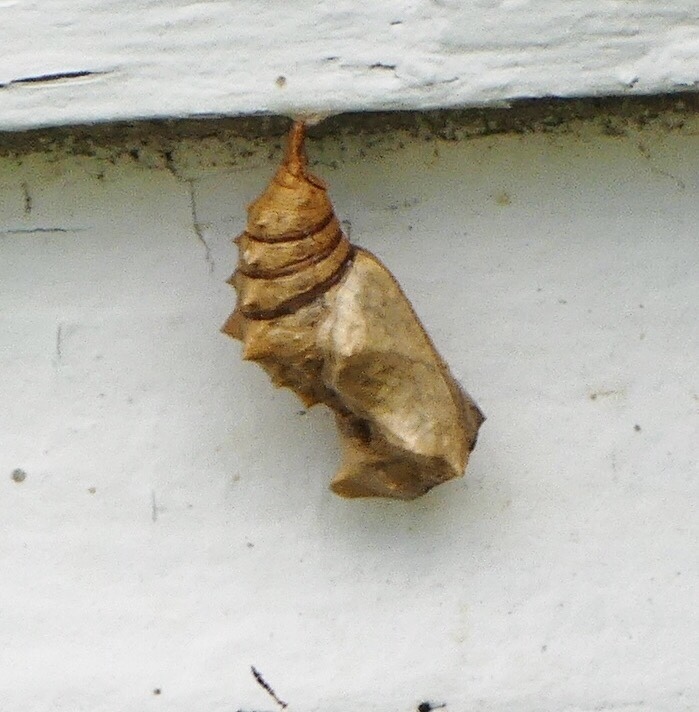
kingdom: Animalia
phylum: Arthropoda
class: Insecta
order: Lepidoptera
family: Nymphalidae
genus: Polygonia
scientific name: Polygonia vaualbum
